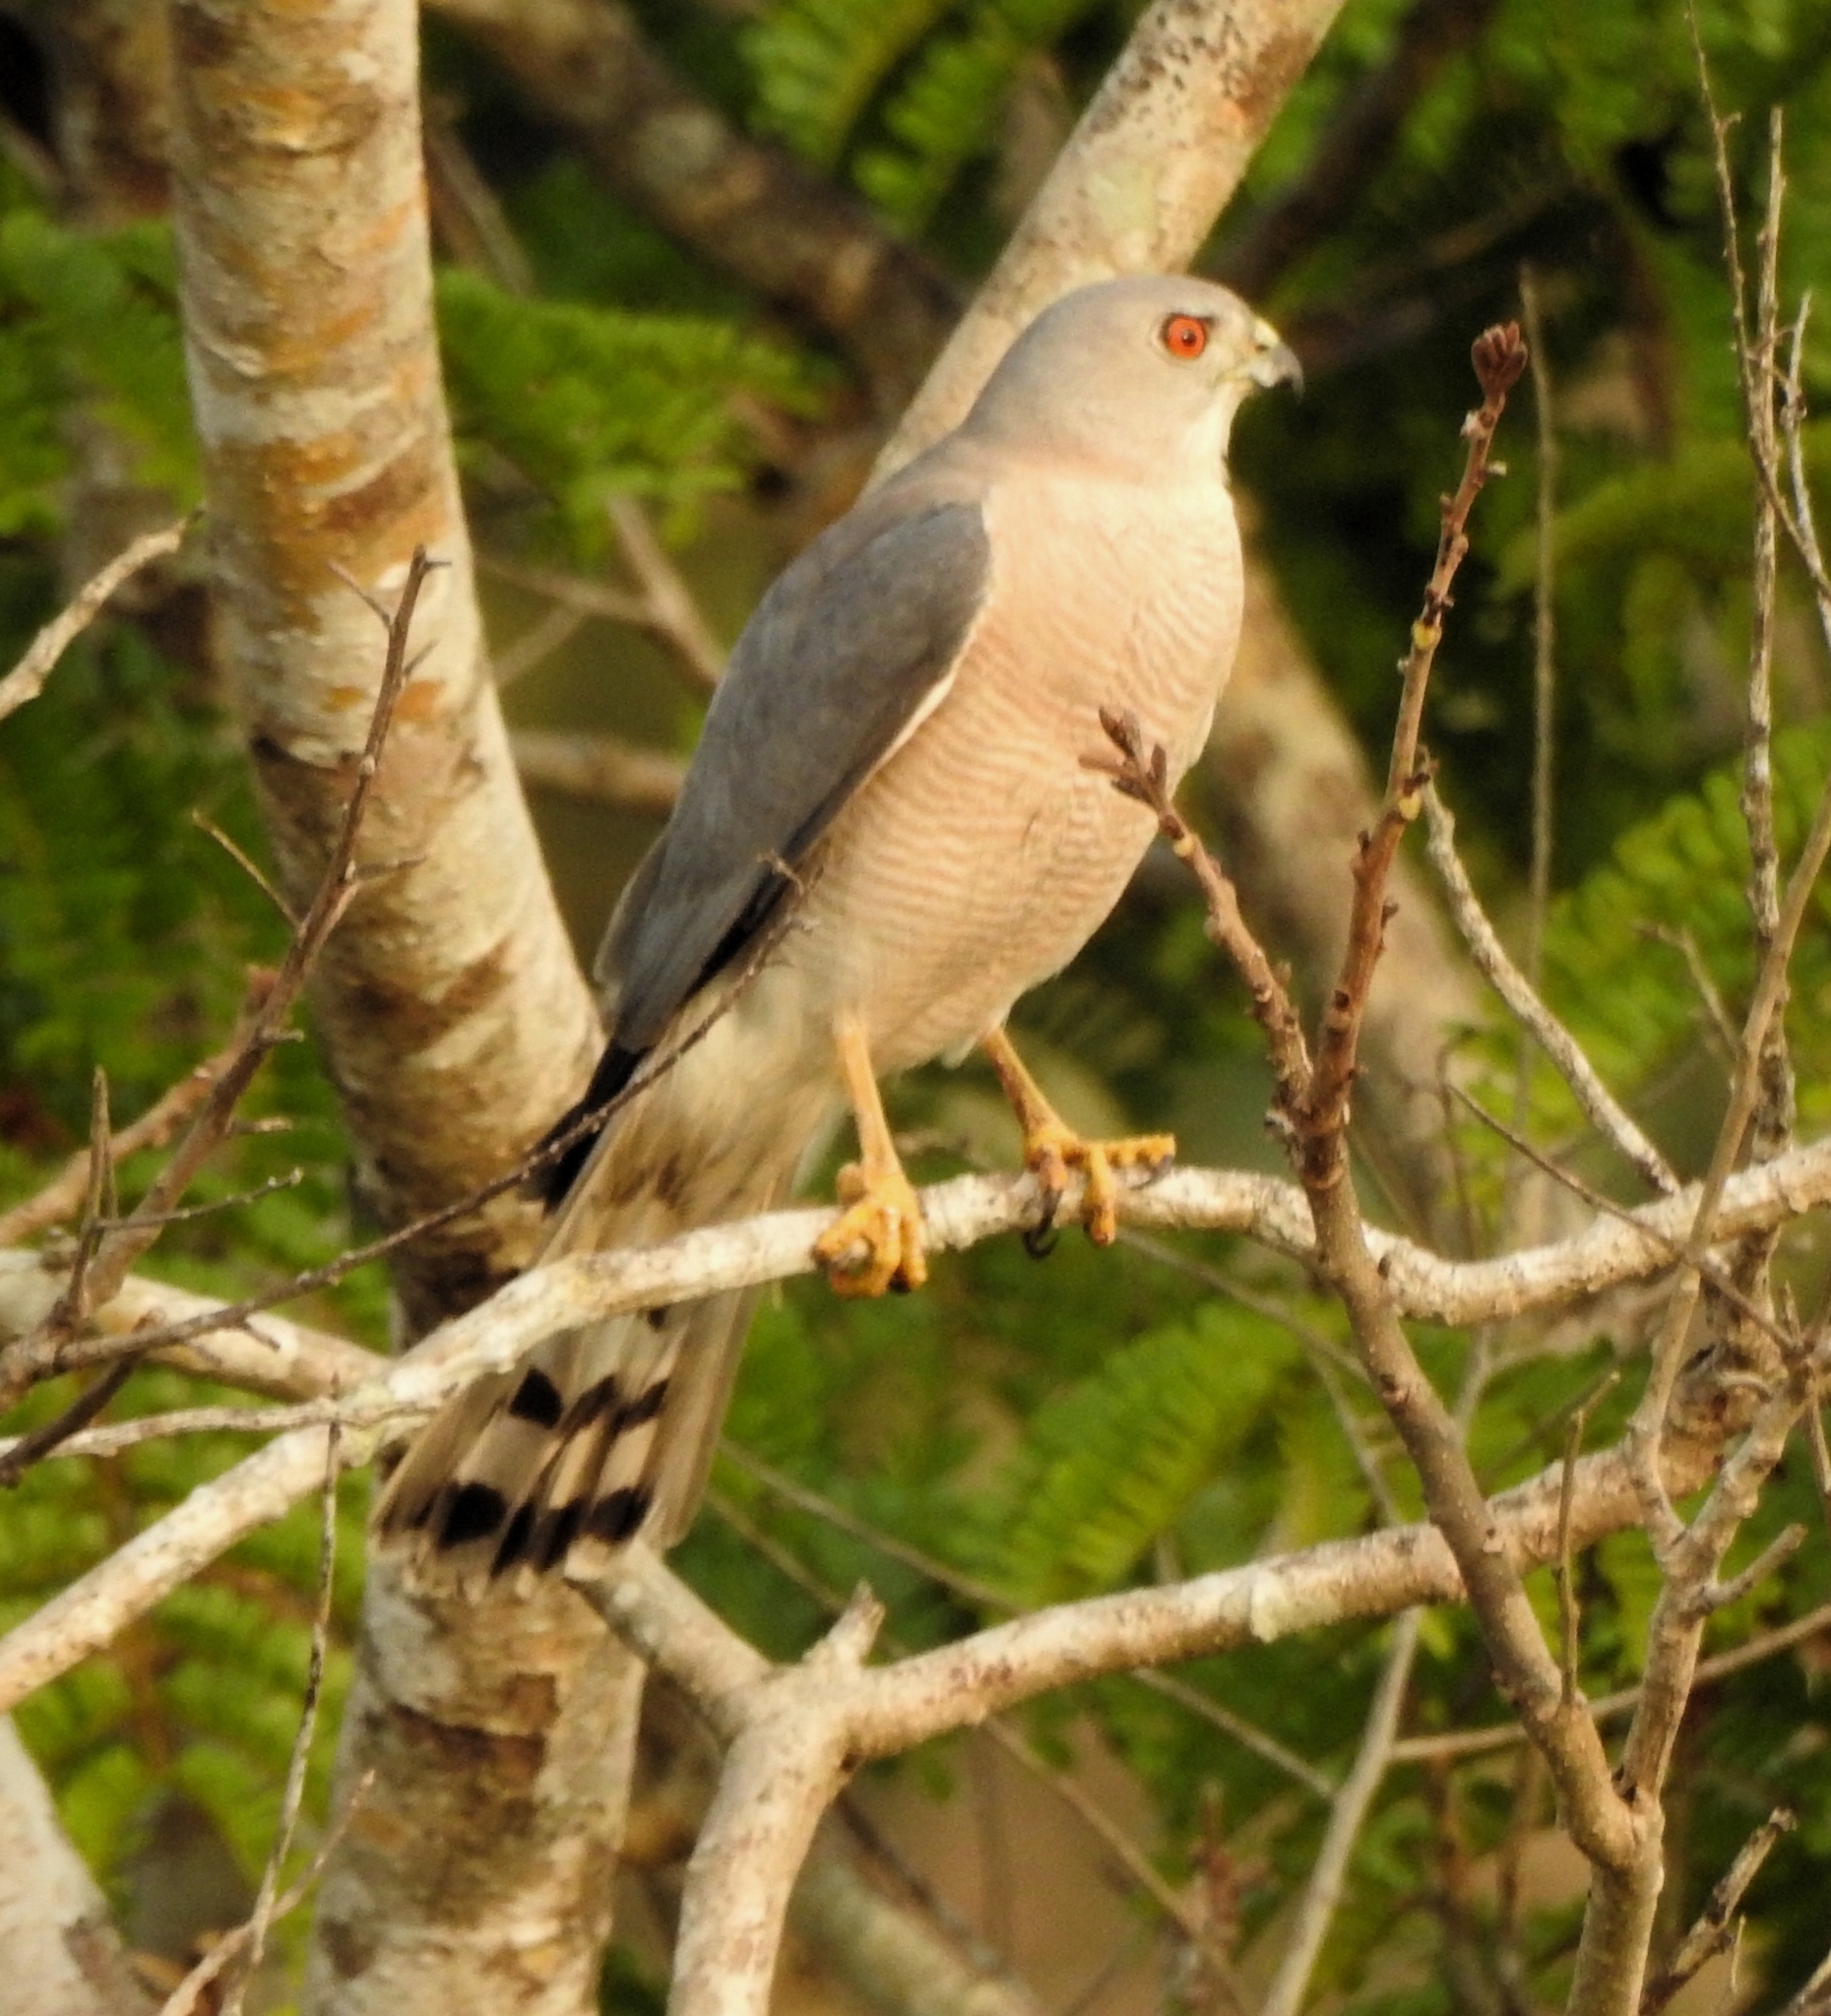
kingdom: Animalia
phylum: Chordata
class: Aves
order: Accipitriformes
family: Accipitridae
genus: Accipiter
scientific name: Accipiter badius
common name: Shikra
